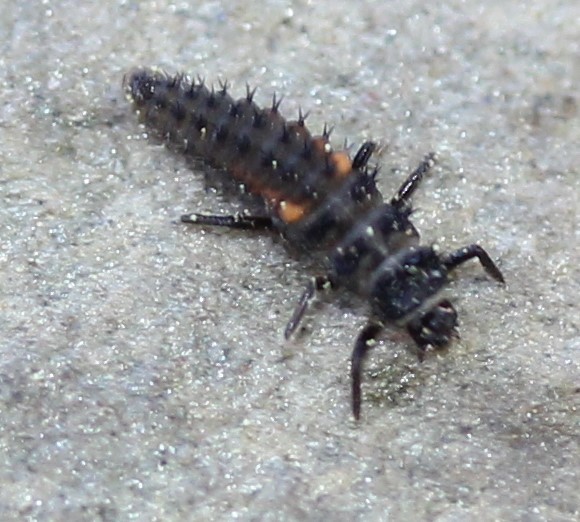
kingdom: Animalia
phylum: Arthropoda
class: Insecta
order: Coleoptera
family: Coccinellidae
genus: Harmonia
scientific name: Harmonia axyridis
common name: Harlequin ladybird
